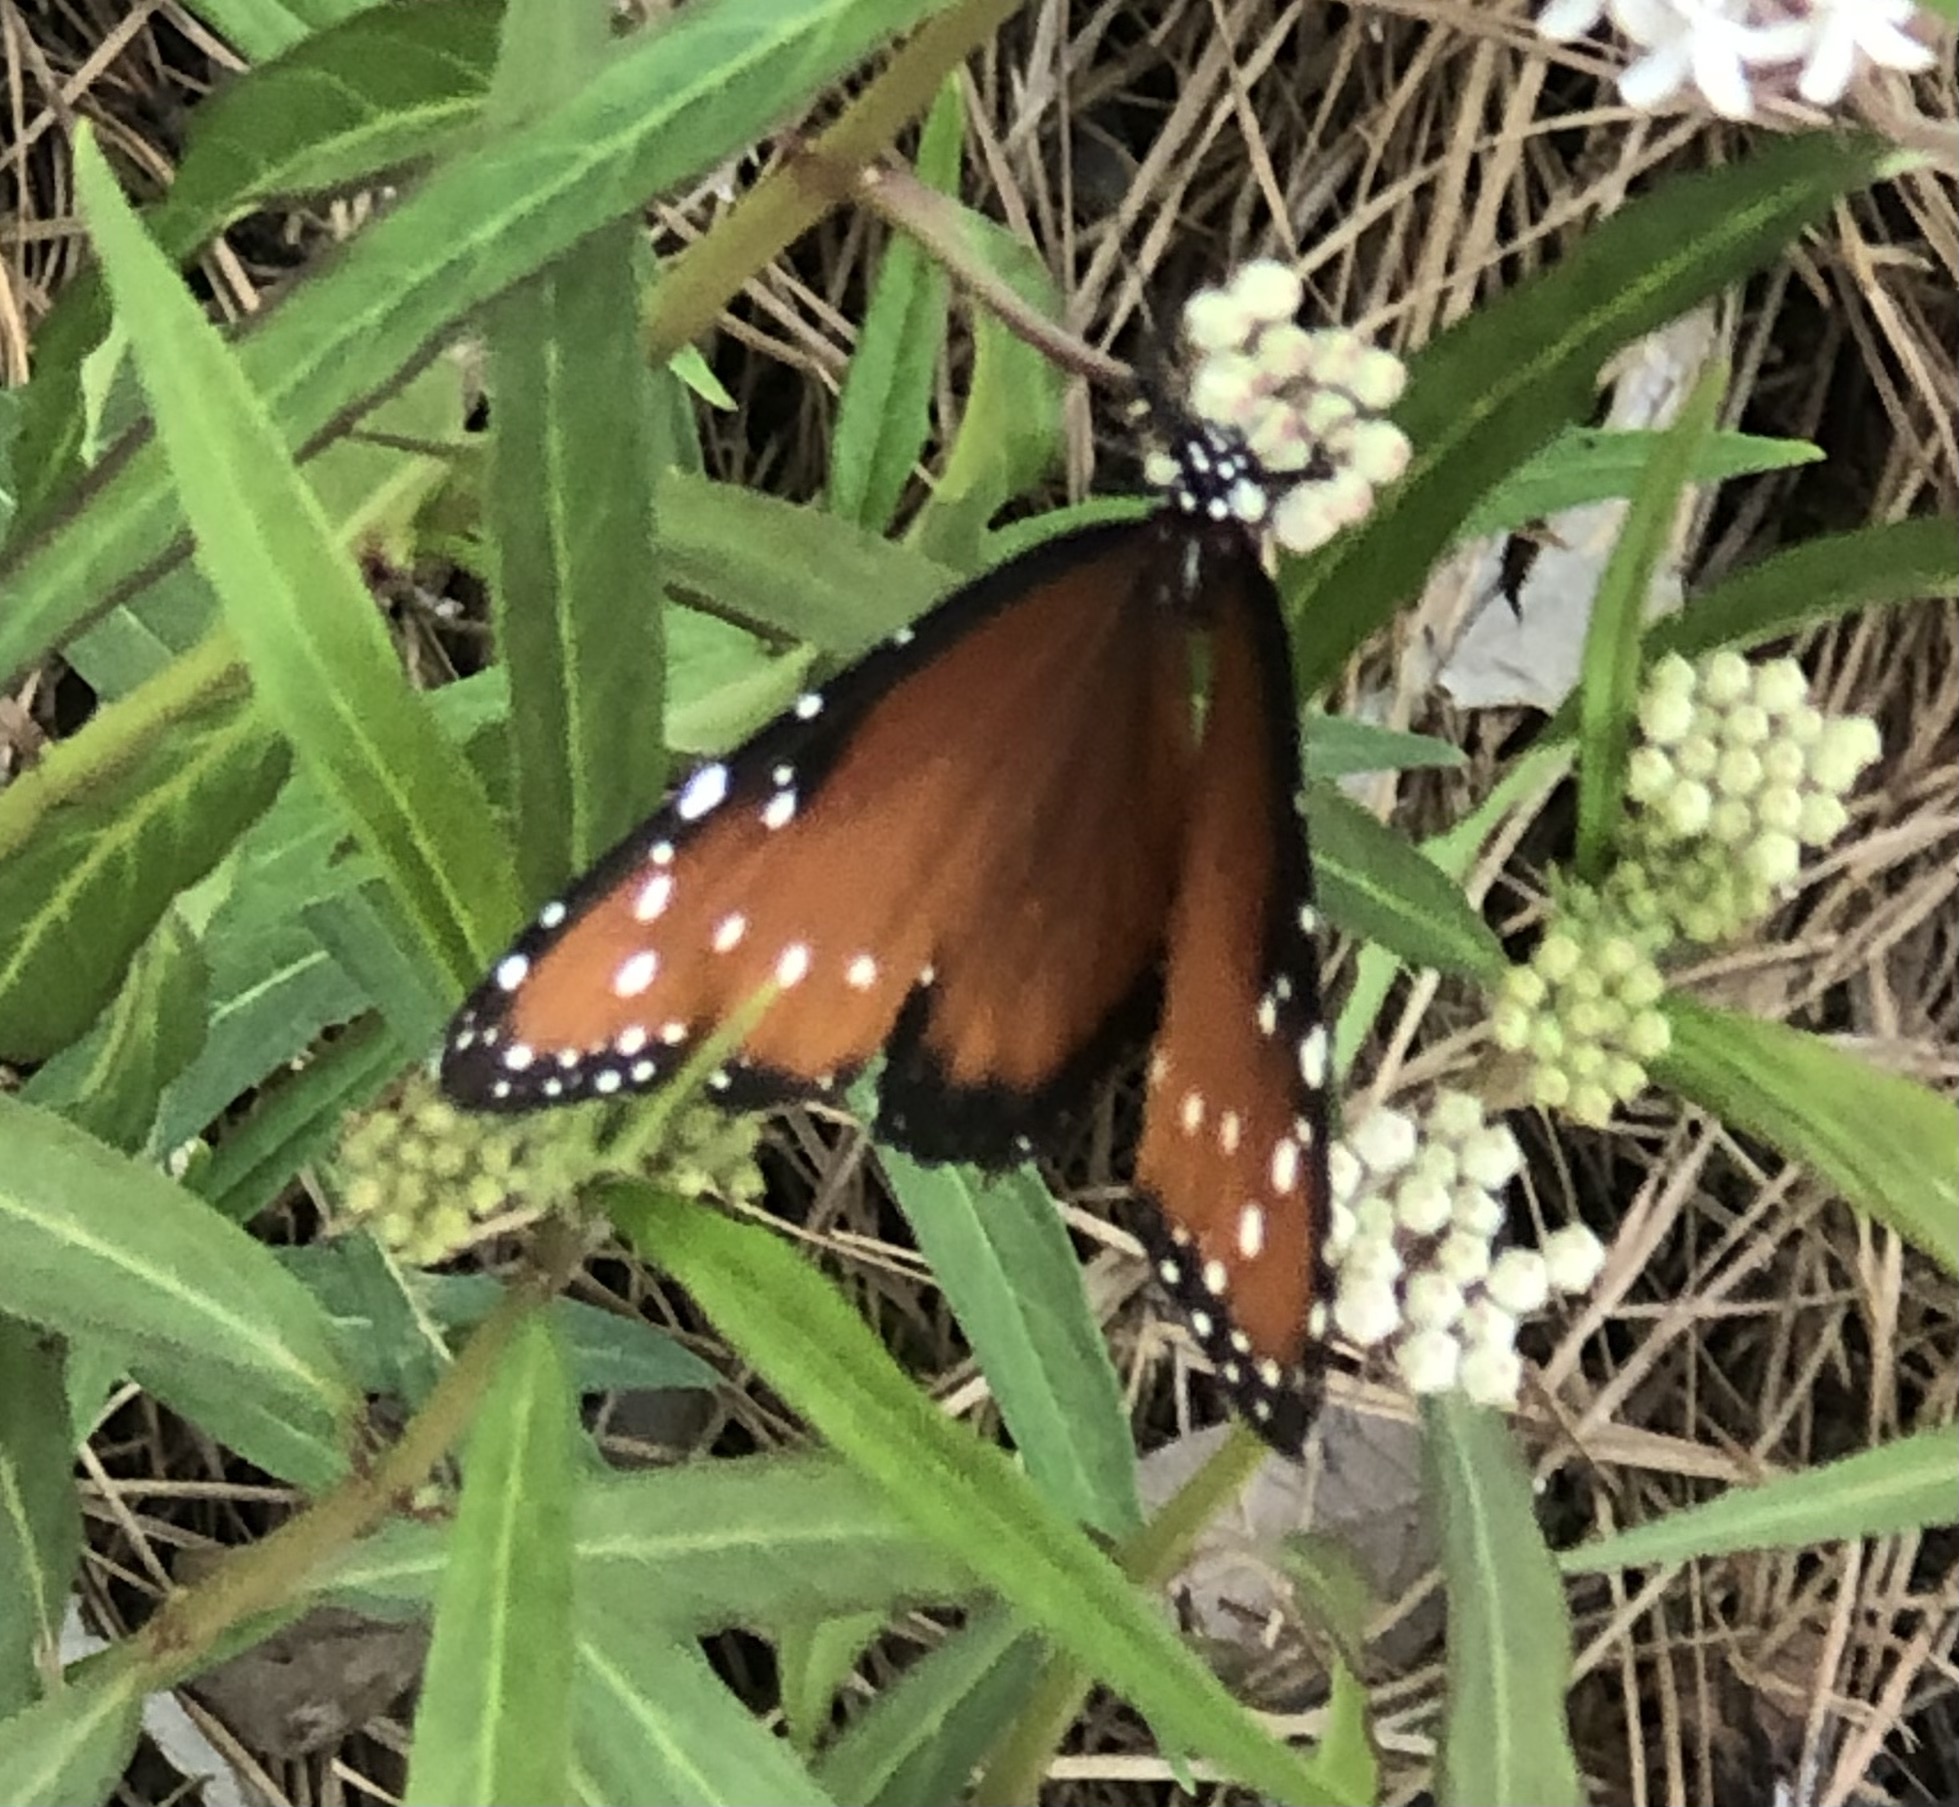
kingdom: Animalia
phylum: Arthropoda
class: Insecta
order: Lepidoptera
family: Nymphalidae
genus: Danaus
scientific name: Danaus gilippus
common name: Queen
